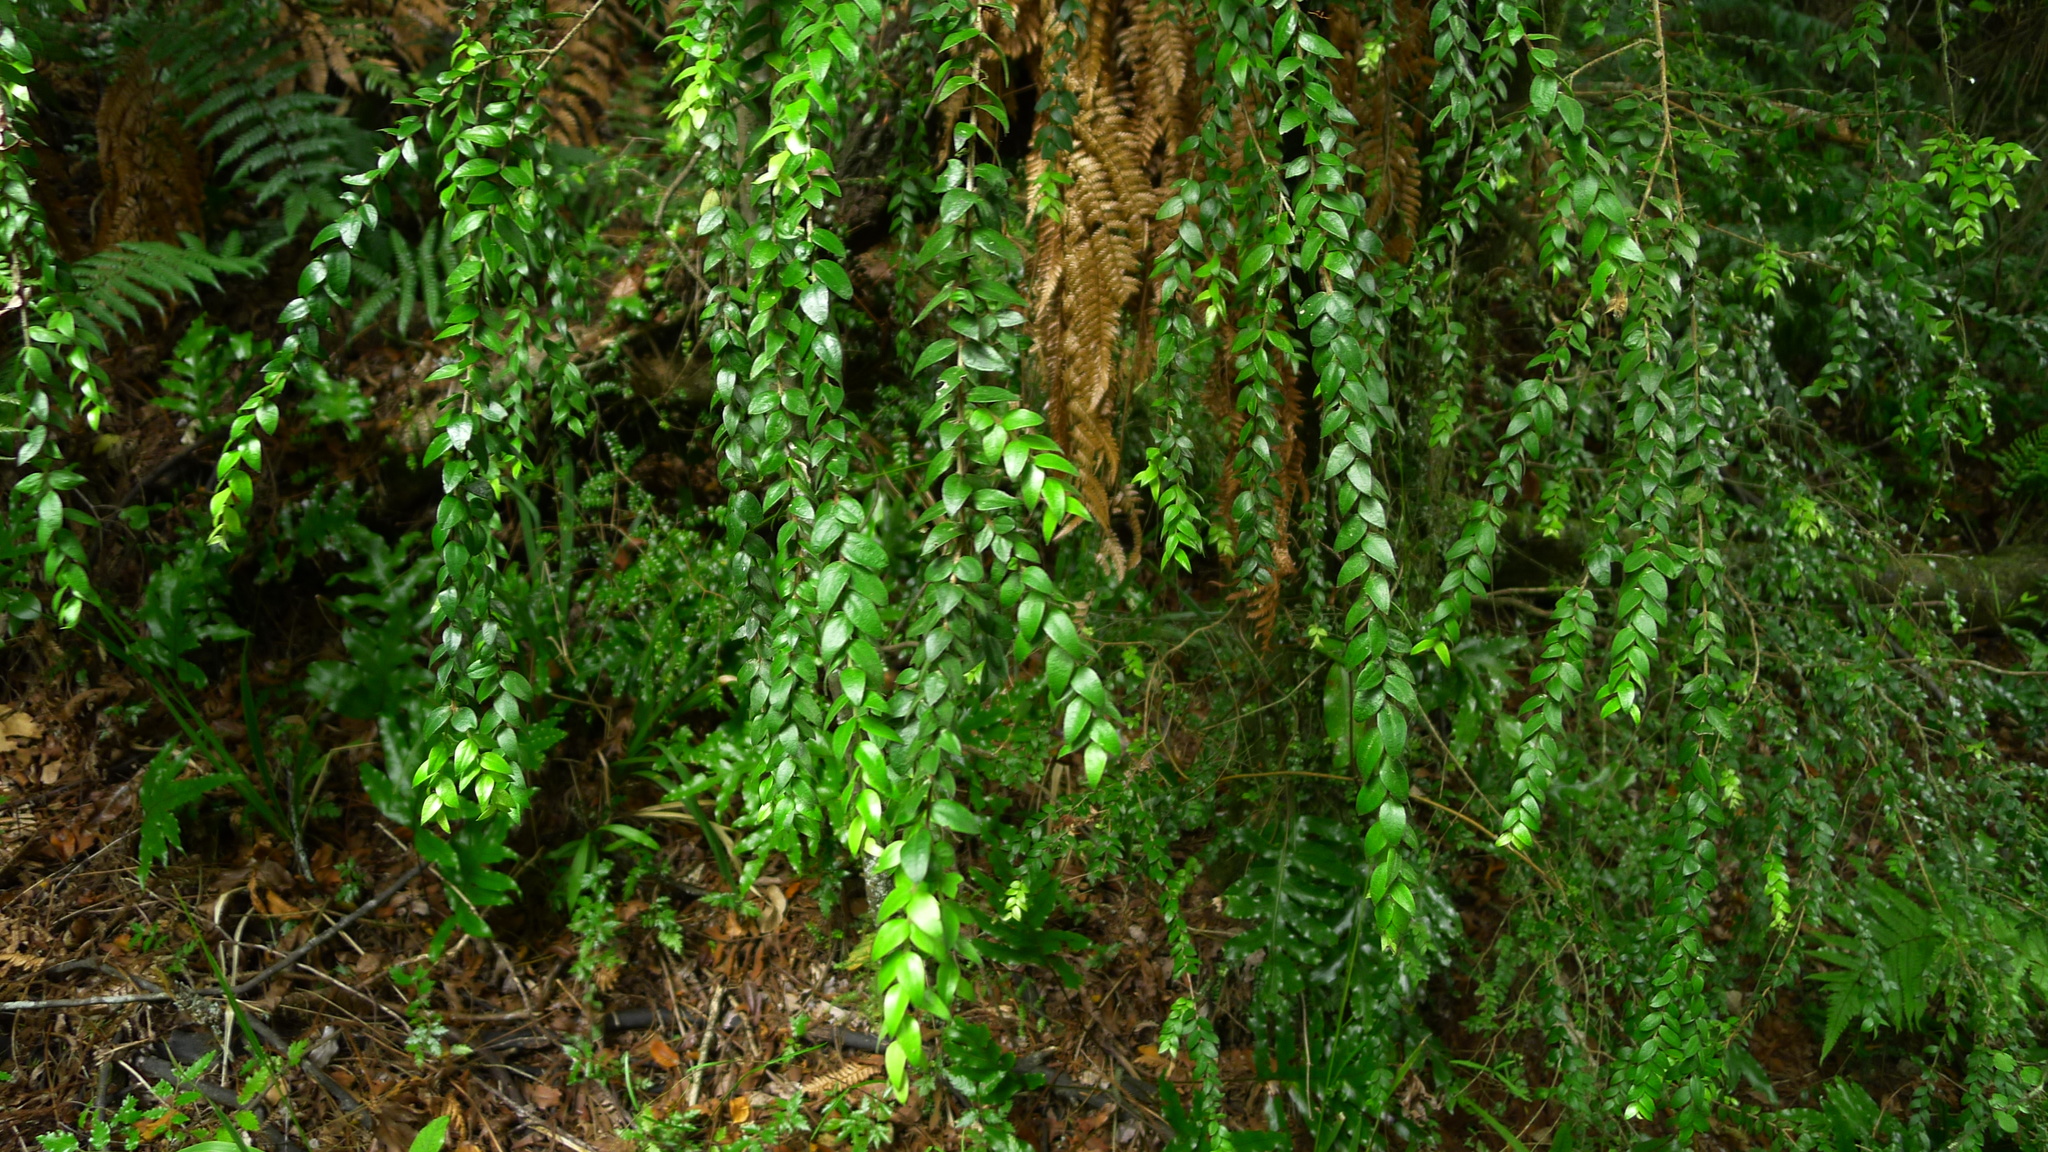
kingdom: Plantae
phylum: Tracheophyta
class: Magnoliopsida
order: Myrtales
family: Myrtaceae
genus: Metrosideros
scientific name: Metrosideros colensoi
